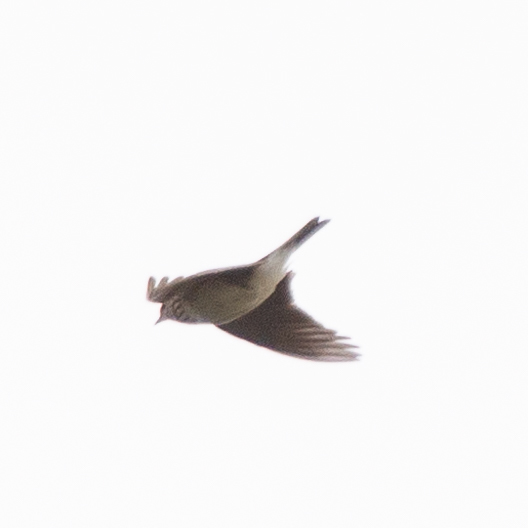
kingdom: Animalia
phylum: Chordata
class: Aves
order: Passeriformes
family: Alaudidae
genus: Alauda
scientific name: Alauda arvensis
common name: Eurasian skylark
